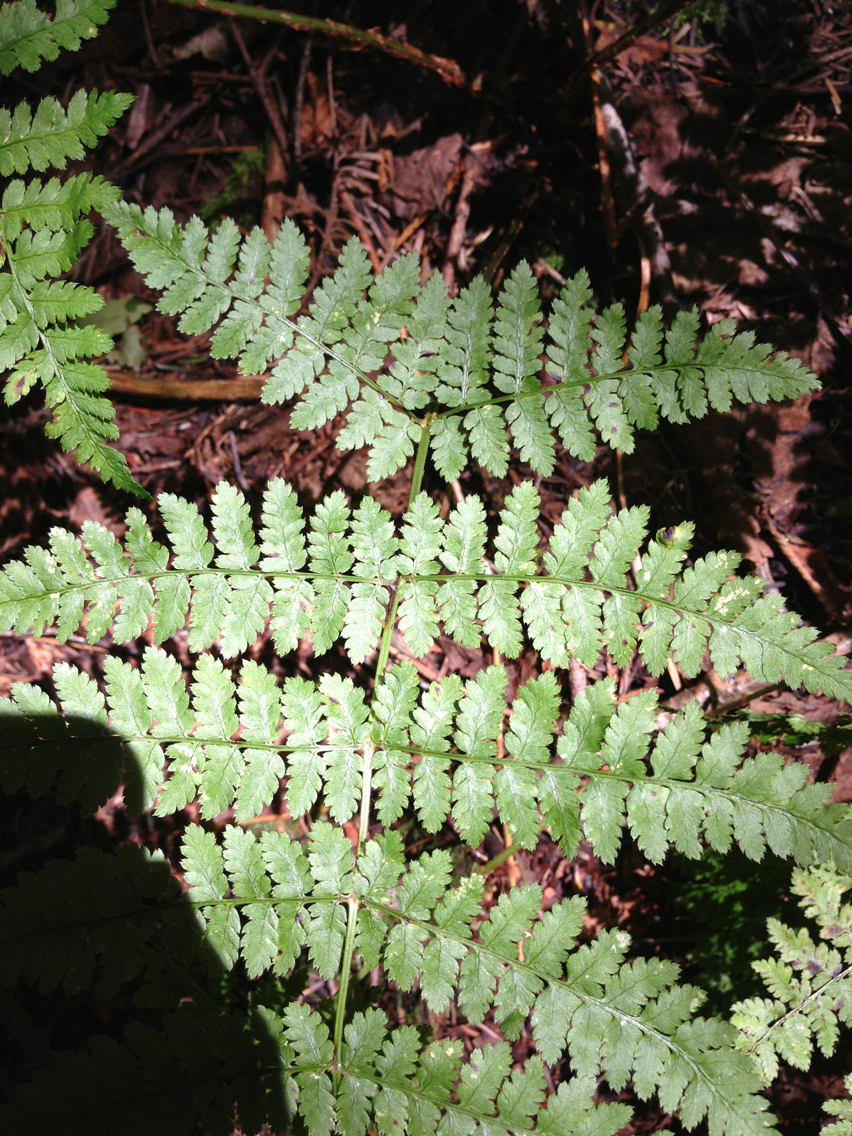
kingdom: Plantae
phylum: Tracheophyta
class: Polypodiopsida
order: Polypodiales
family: Dryopteridaceae
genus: Dryopteris
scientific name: Dryopteris campyloptera
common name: Mountain wood fern
